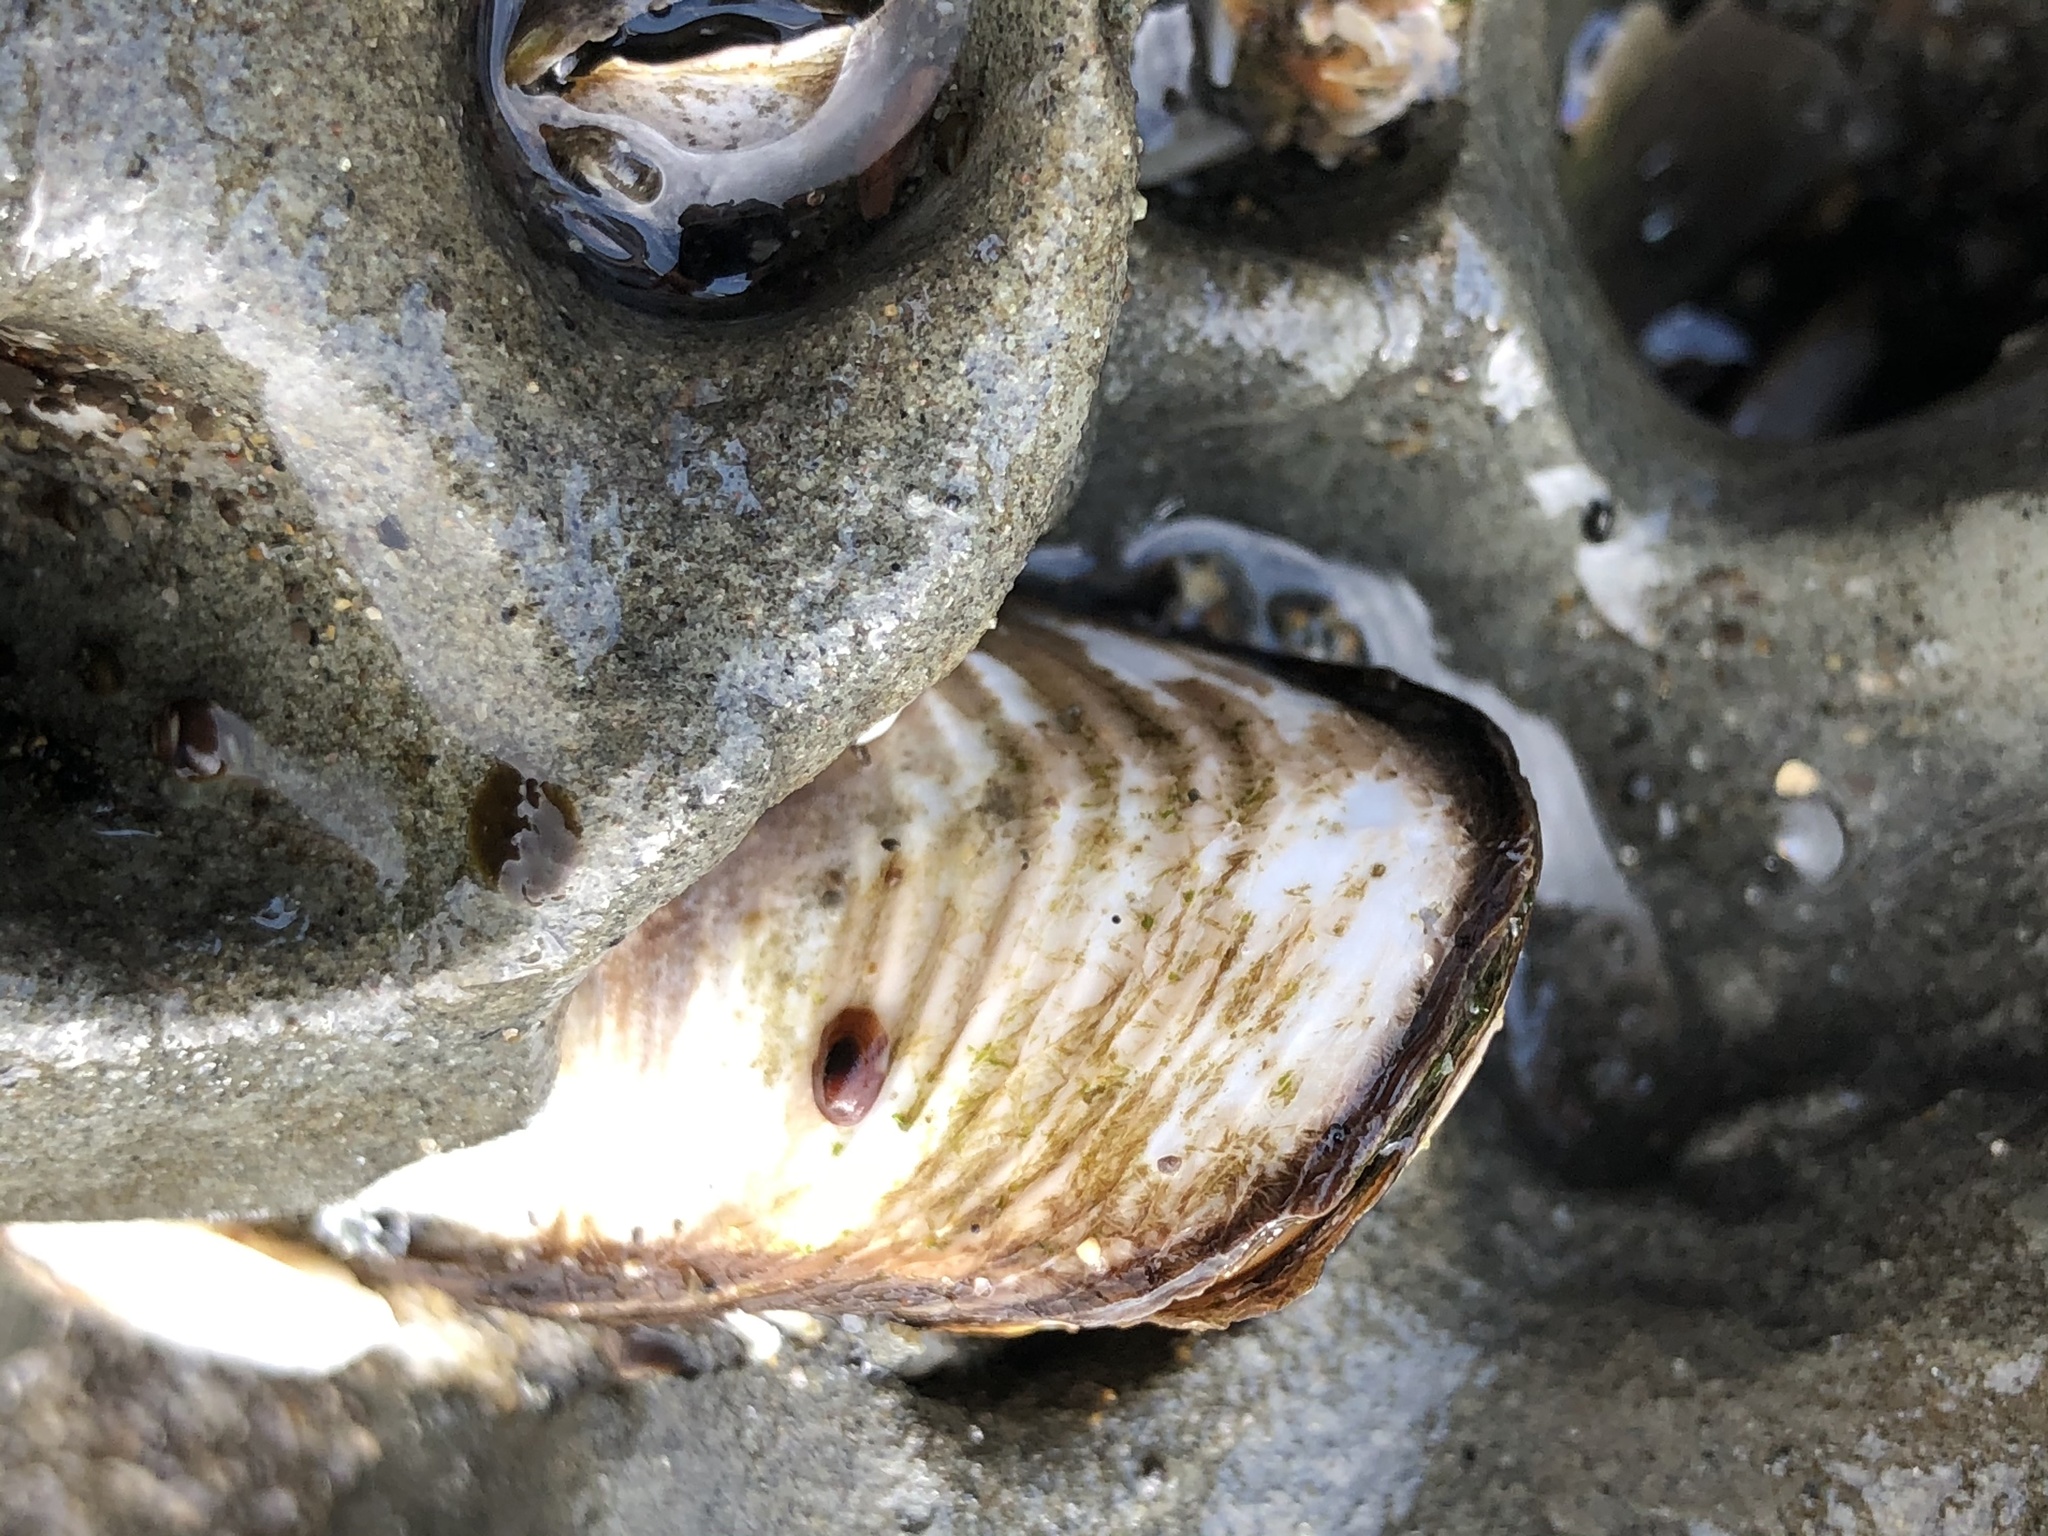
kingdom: Animalia
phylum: Mollusca
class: Bivalvia
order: Myida
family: Pholadidae
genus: Parapholas
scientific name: Parapholas californica
